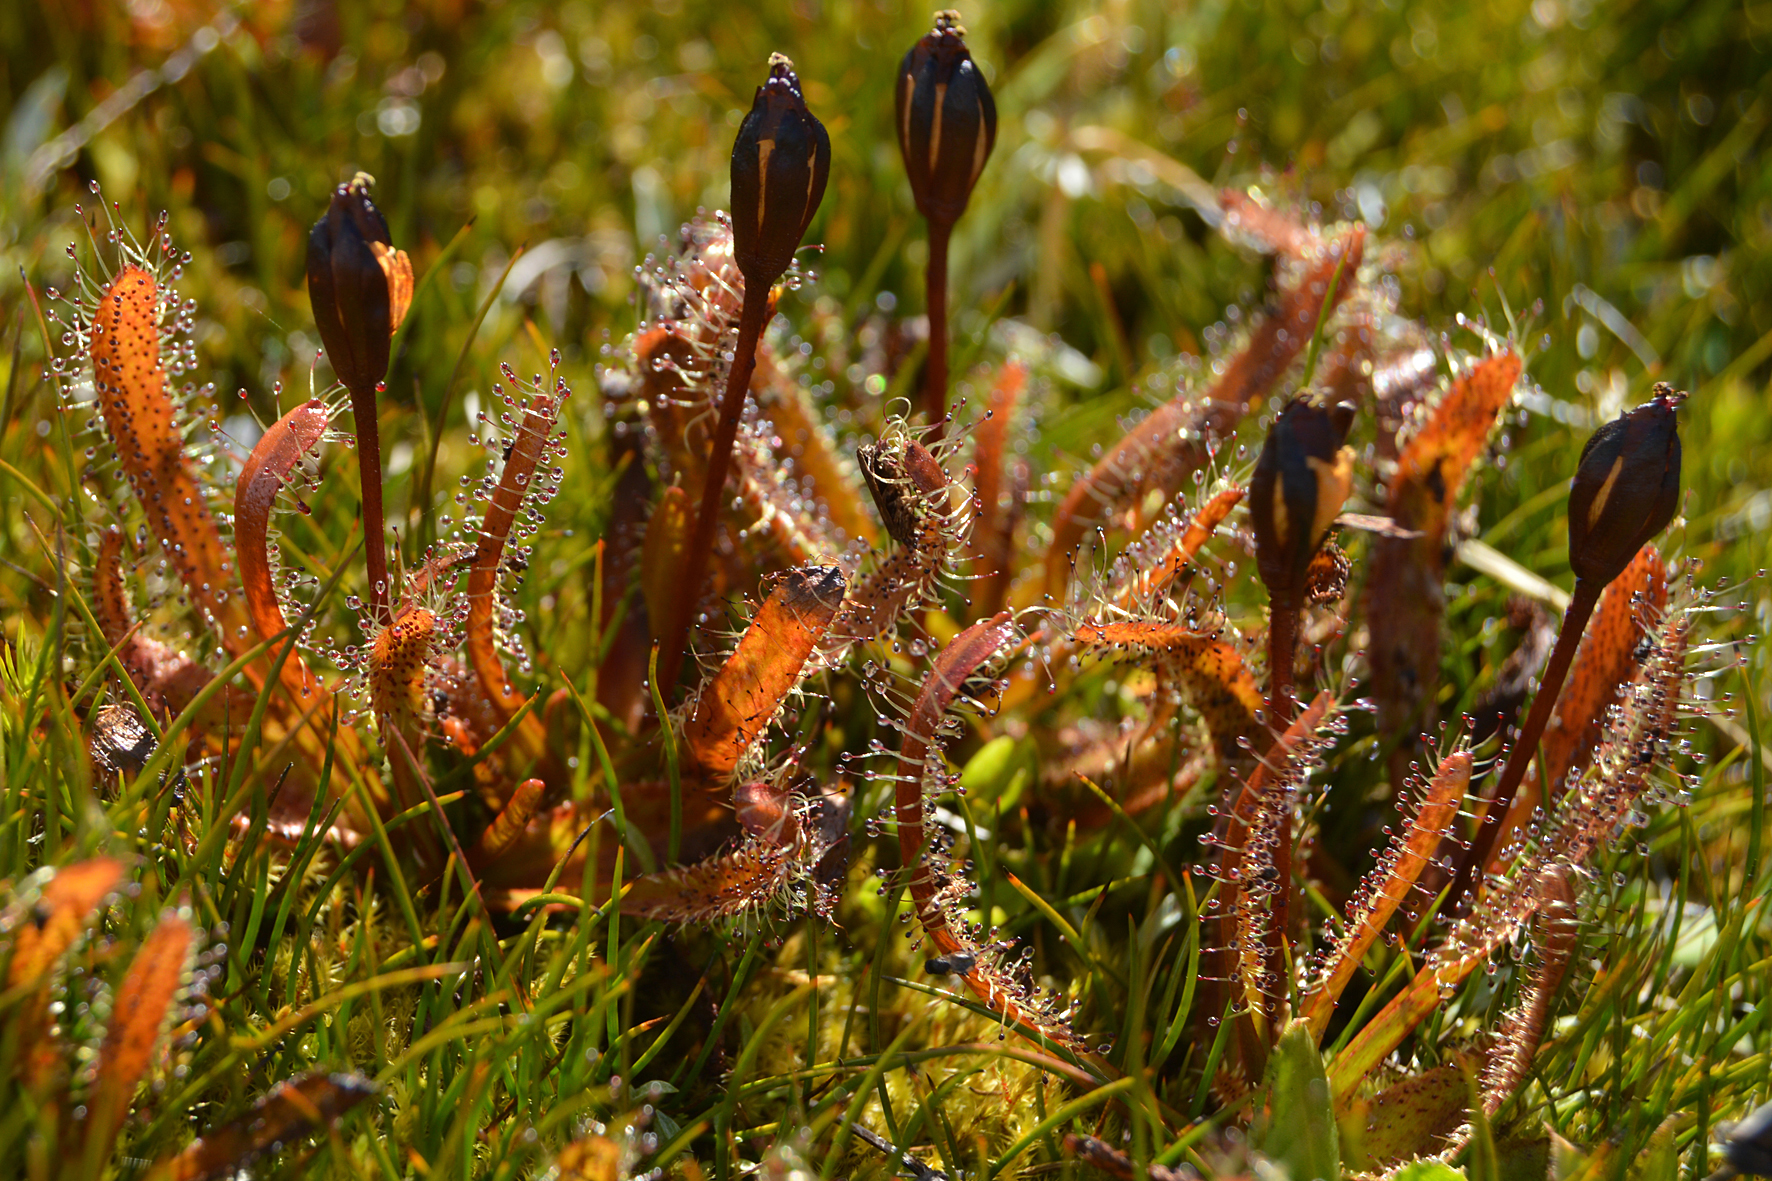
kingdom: Plantae
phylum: Tracheophyta
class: Magnoliopsida
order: Caryophyllales
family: Droseraceae
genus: Drosera
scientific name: Drosera arcturi
